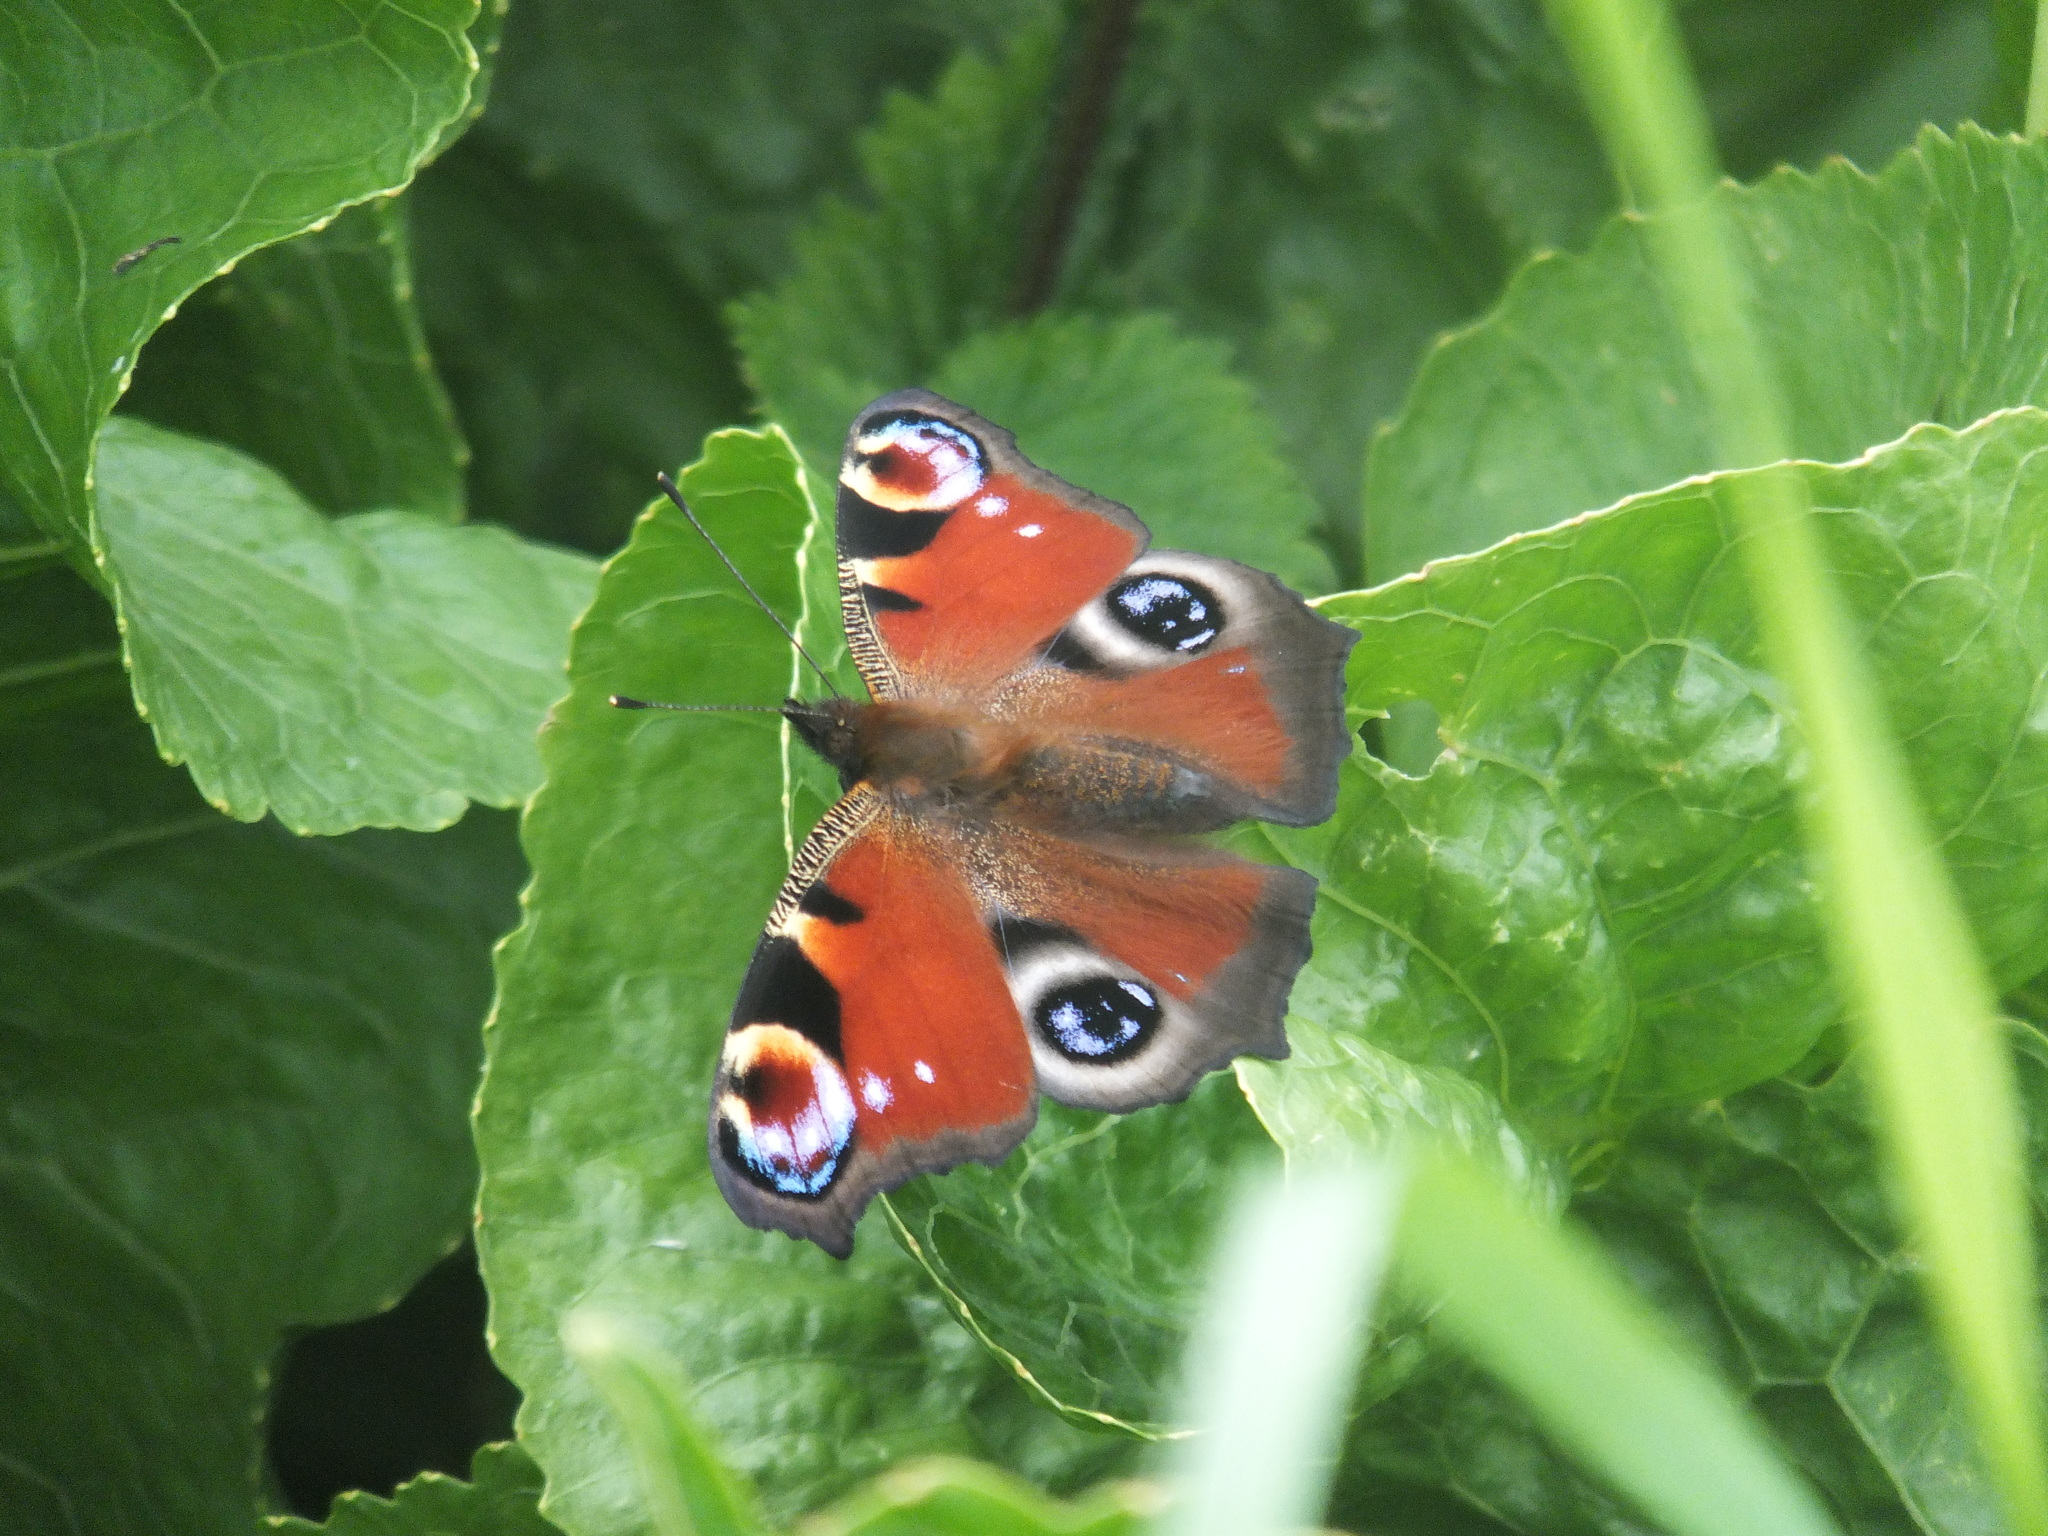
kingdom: Animalia
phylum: Arthropoda
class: Insecta
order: Lepidoptera
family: Nymphalidae
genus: Aglais
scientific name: Aglais io
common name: Peacock
